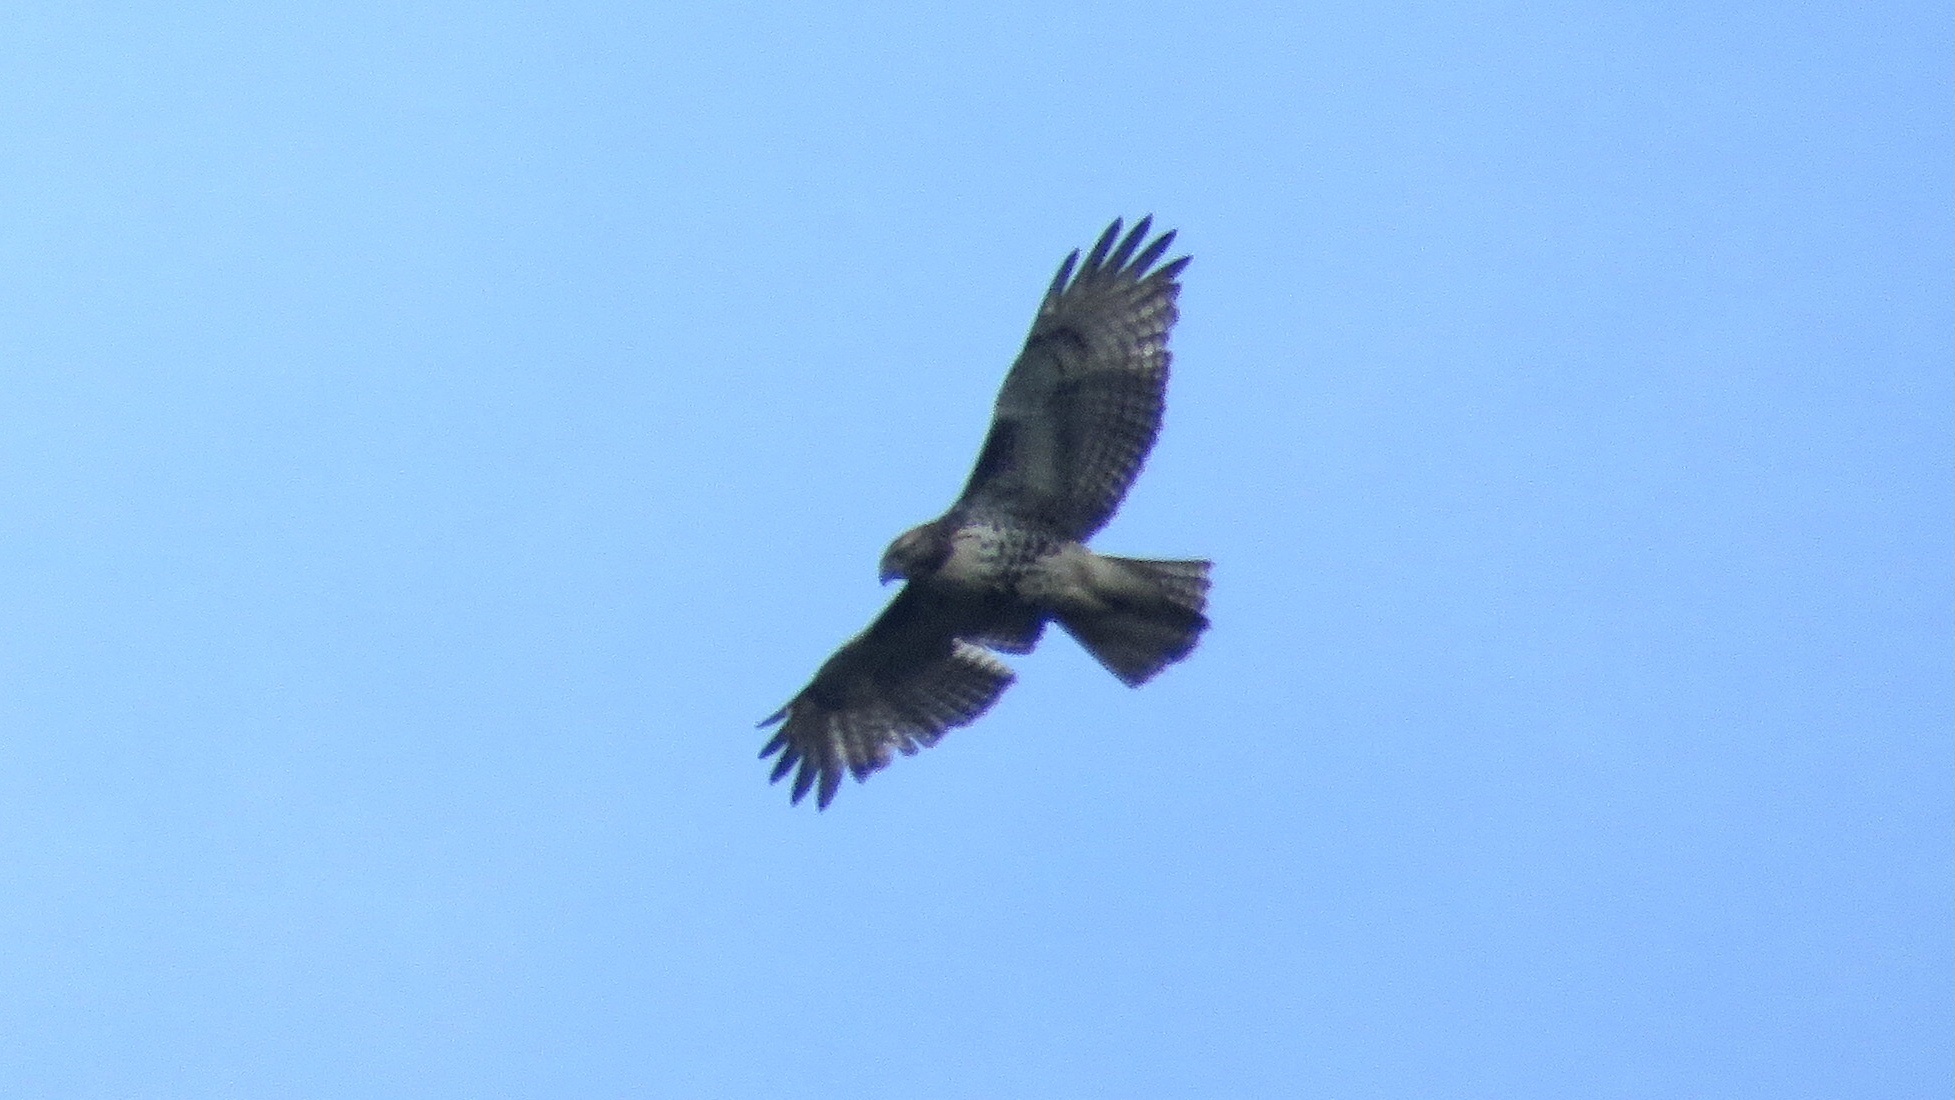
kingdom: Animalia
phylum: Chordata
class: Aves
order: Accipitriformes
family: Accipitridae
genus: Buteo
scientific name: Buteo jamaicensis
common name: Red-tailed hawk
